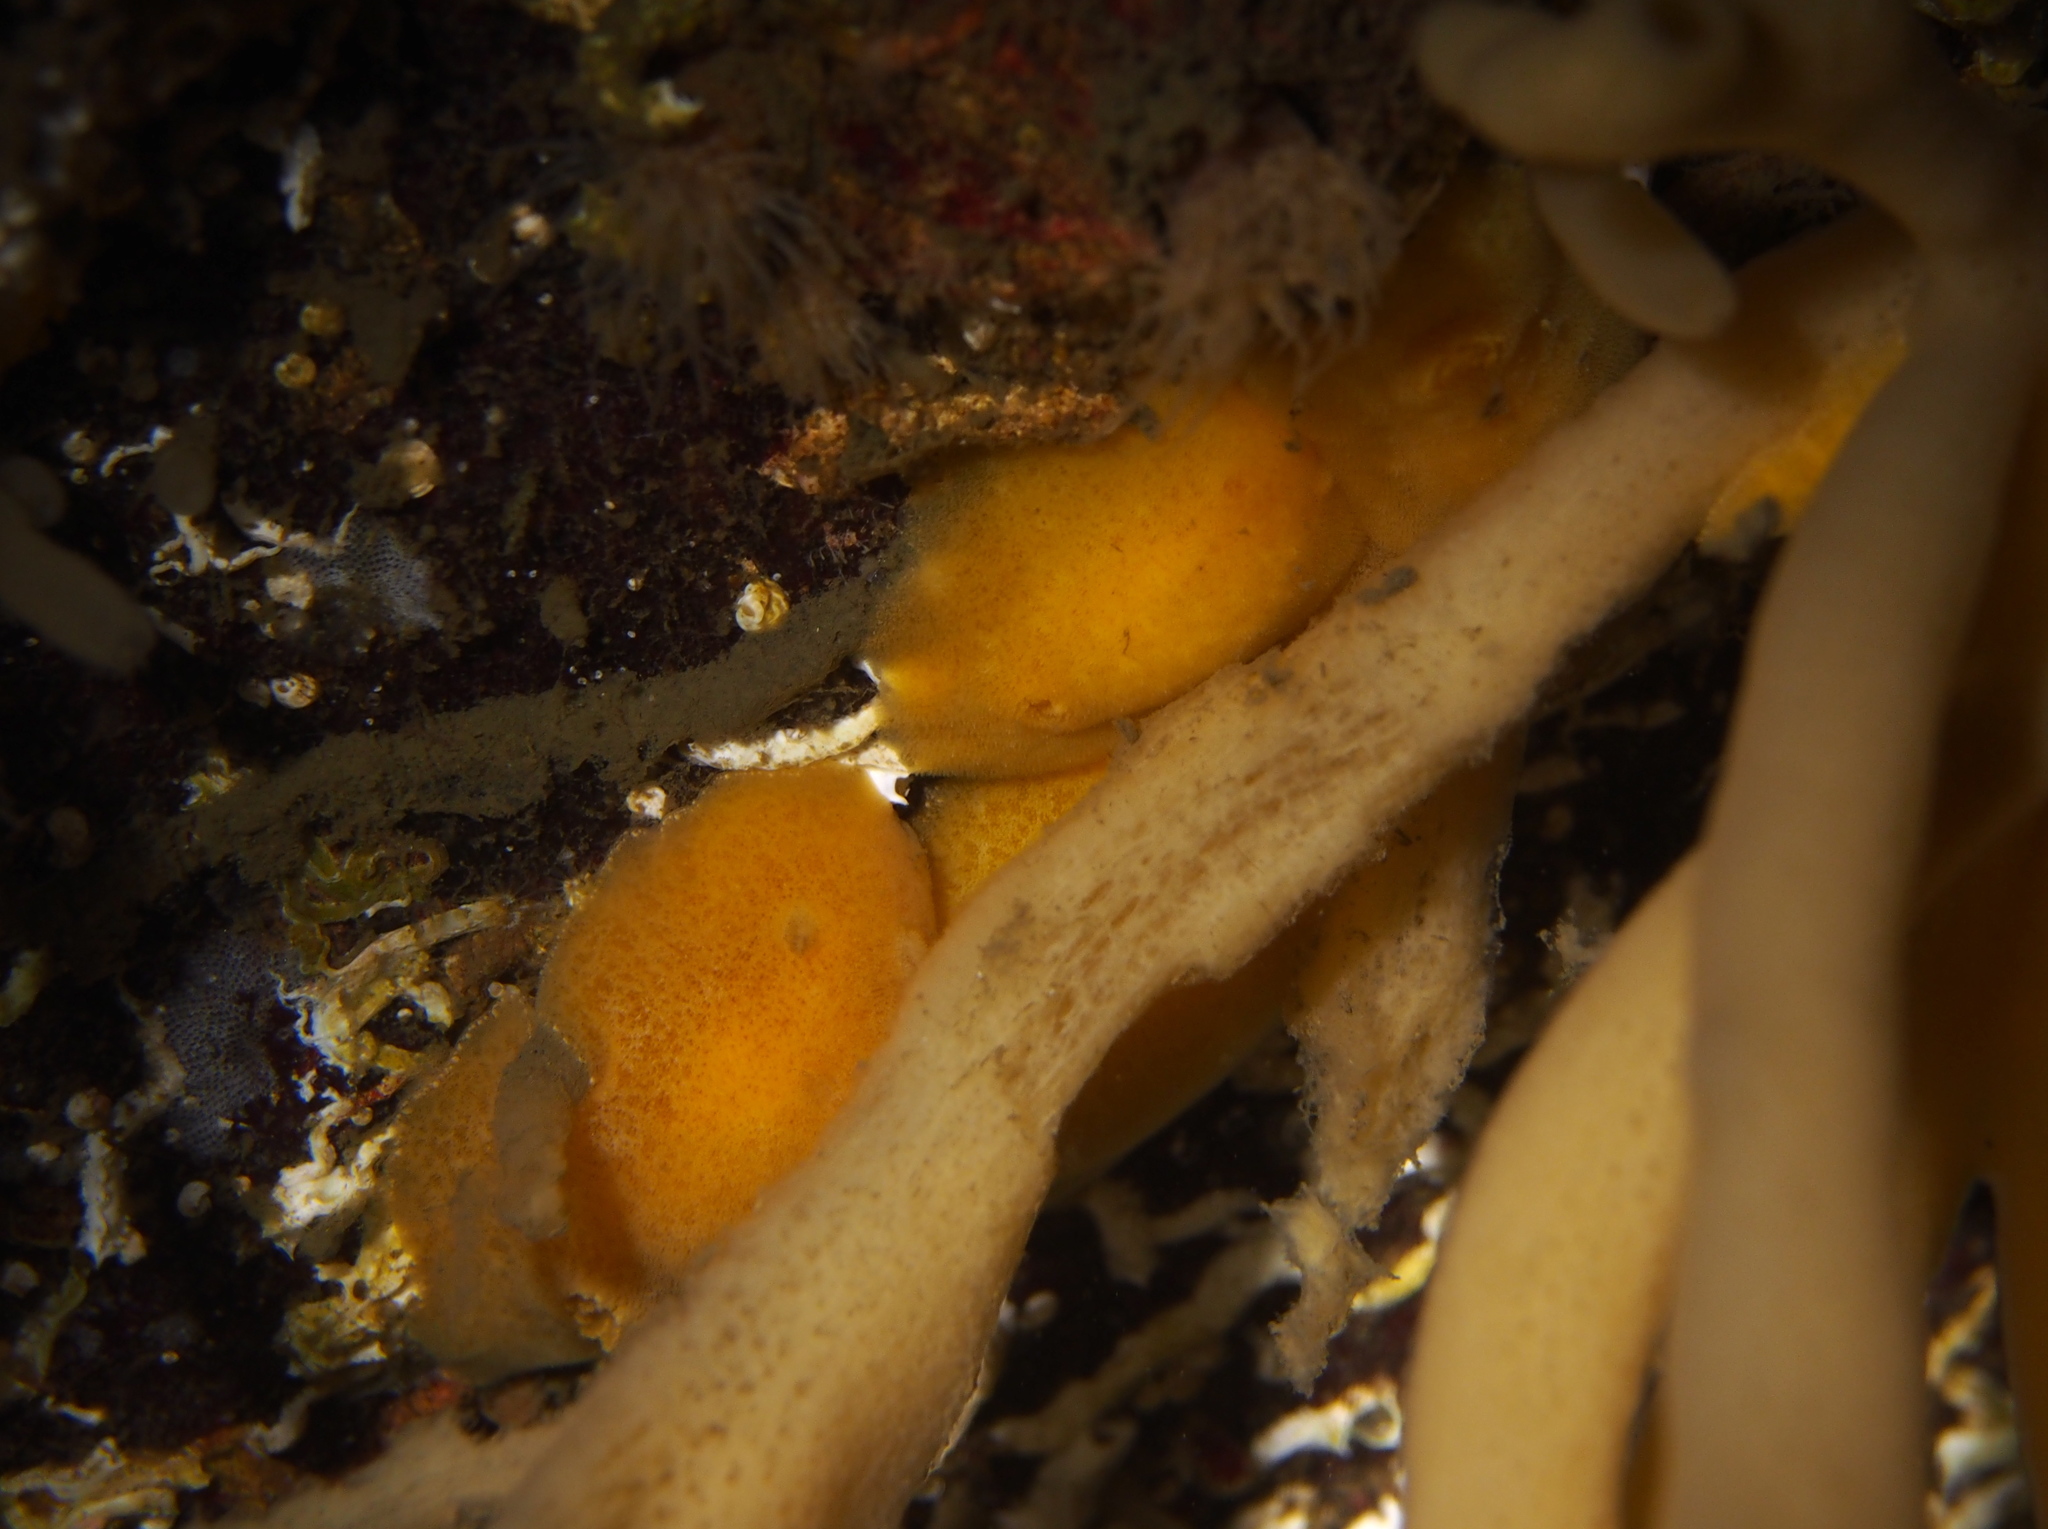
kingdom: Animalia
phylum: Mollusca
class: Gastropoda
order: Nudibranchia
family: Discodorididae
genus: Jorunna
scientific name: Jorunna tomentosa
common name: Grey sea slug
